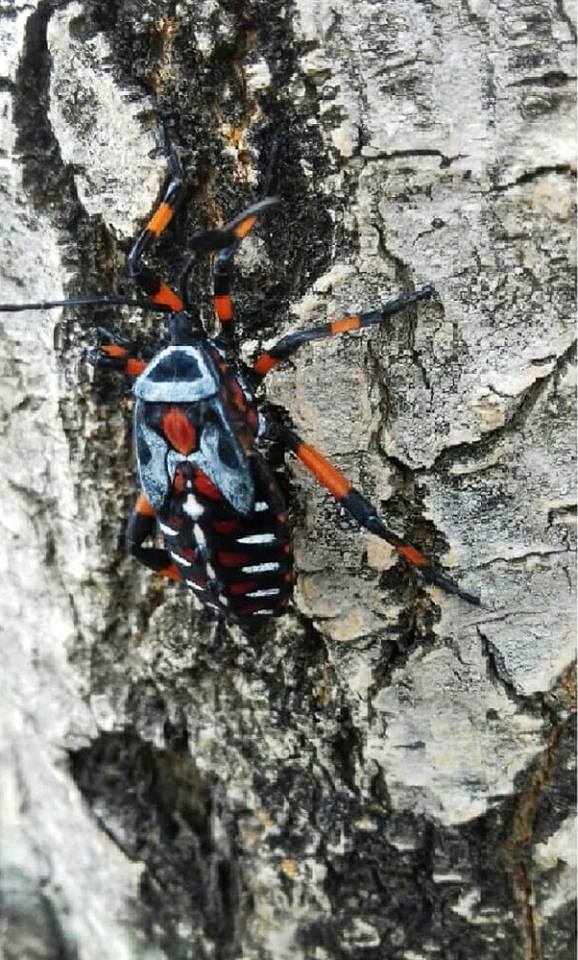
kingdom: Animalia
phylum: Arthropoda
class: Insecta
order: Hemiptera
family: Coreidae
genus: Thasus
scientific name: Thasus
